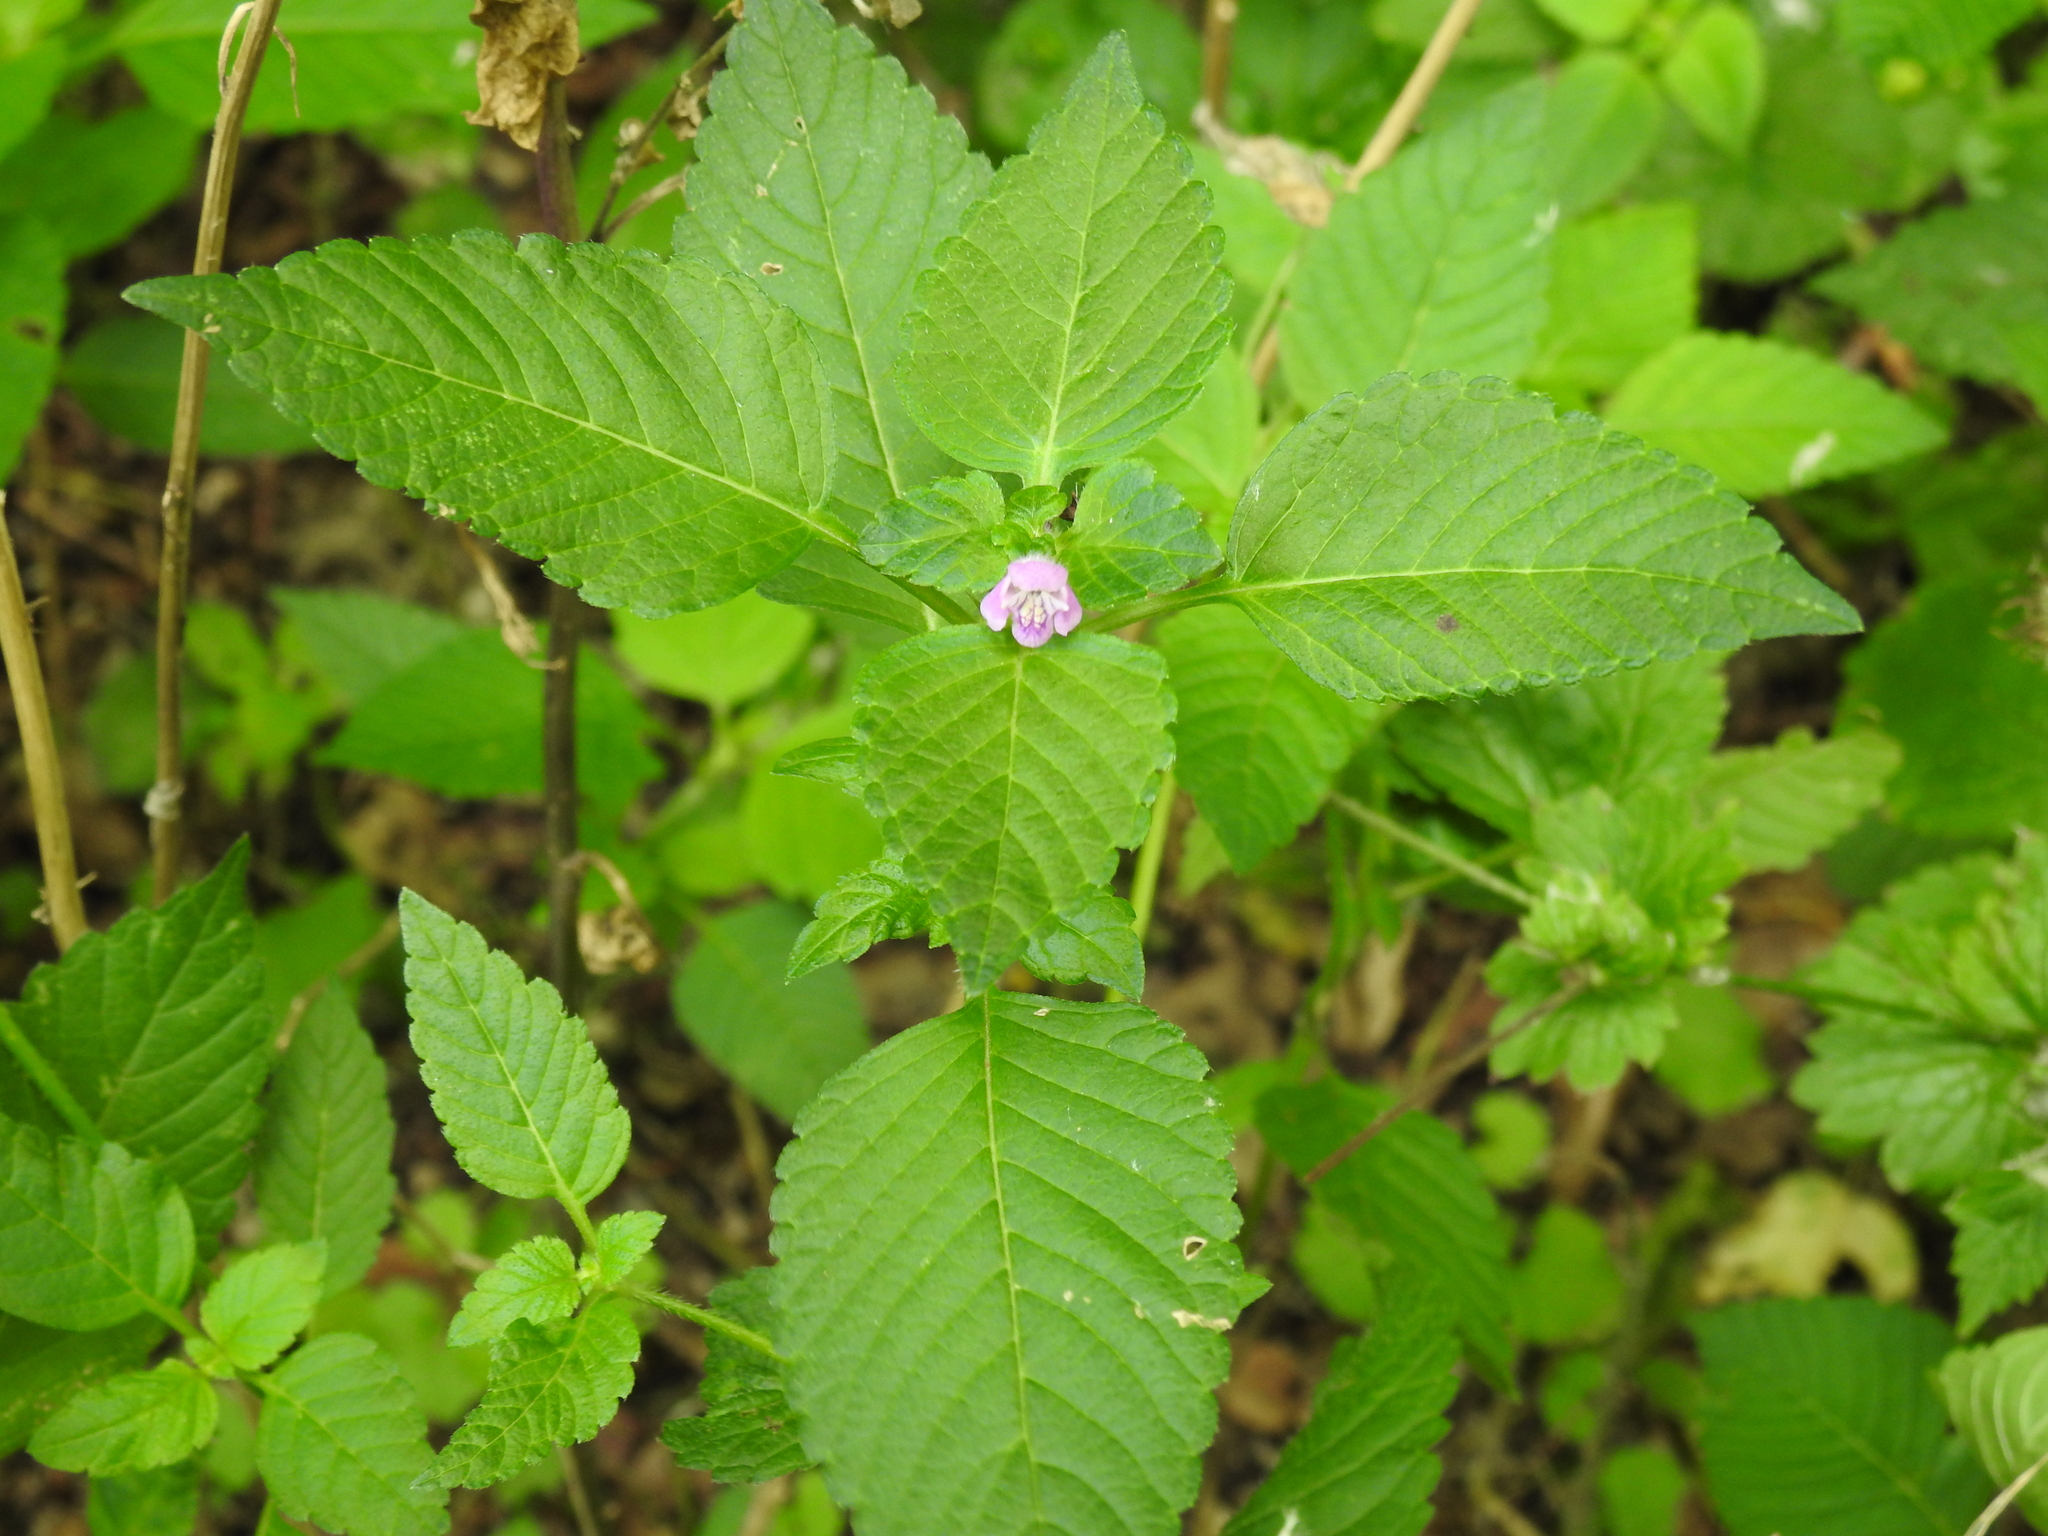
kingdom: Plantae
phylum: Tracheophyta
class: Magnoliopsida
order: Lamiales
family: Lamiaceae
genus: Galeopsis
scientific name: Galeopsis tetrahit
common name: Common hemp-nettle
